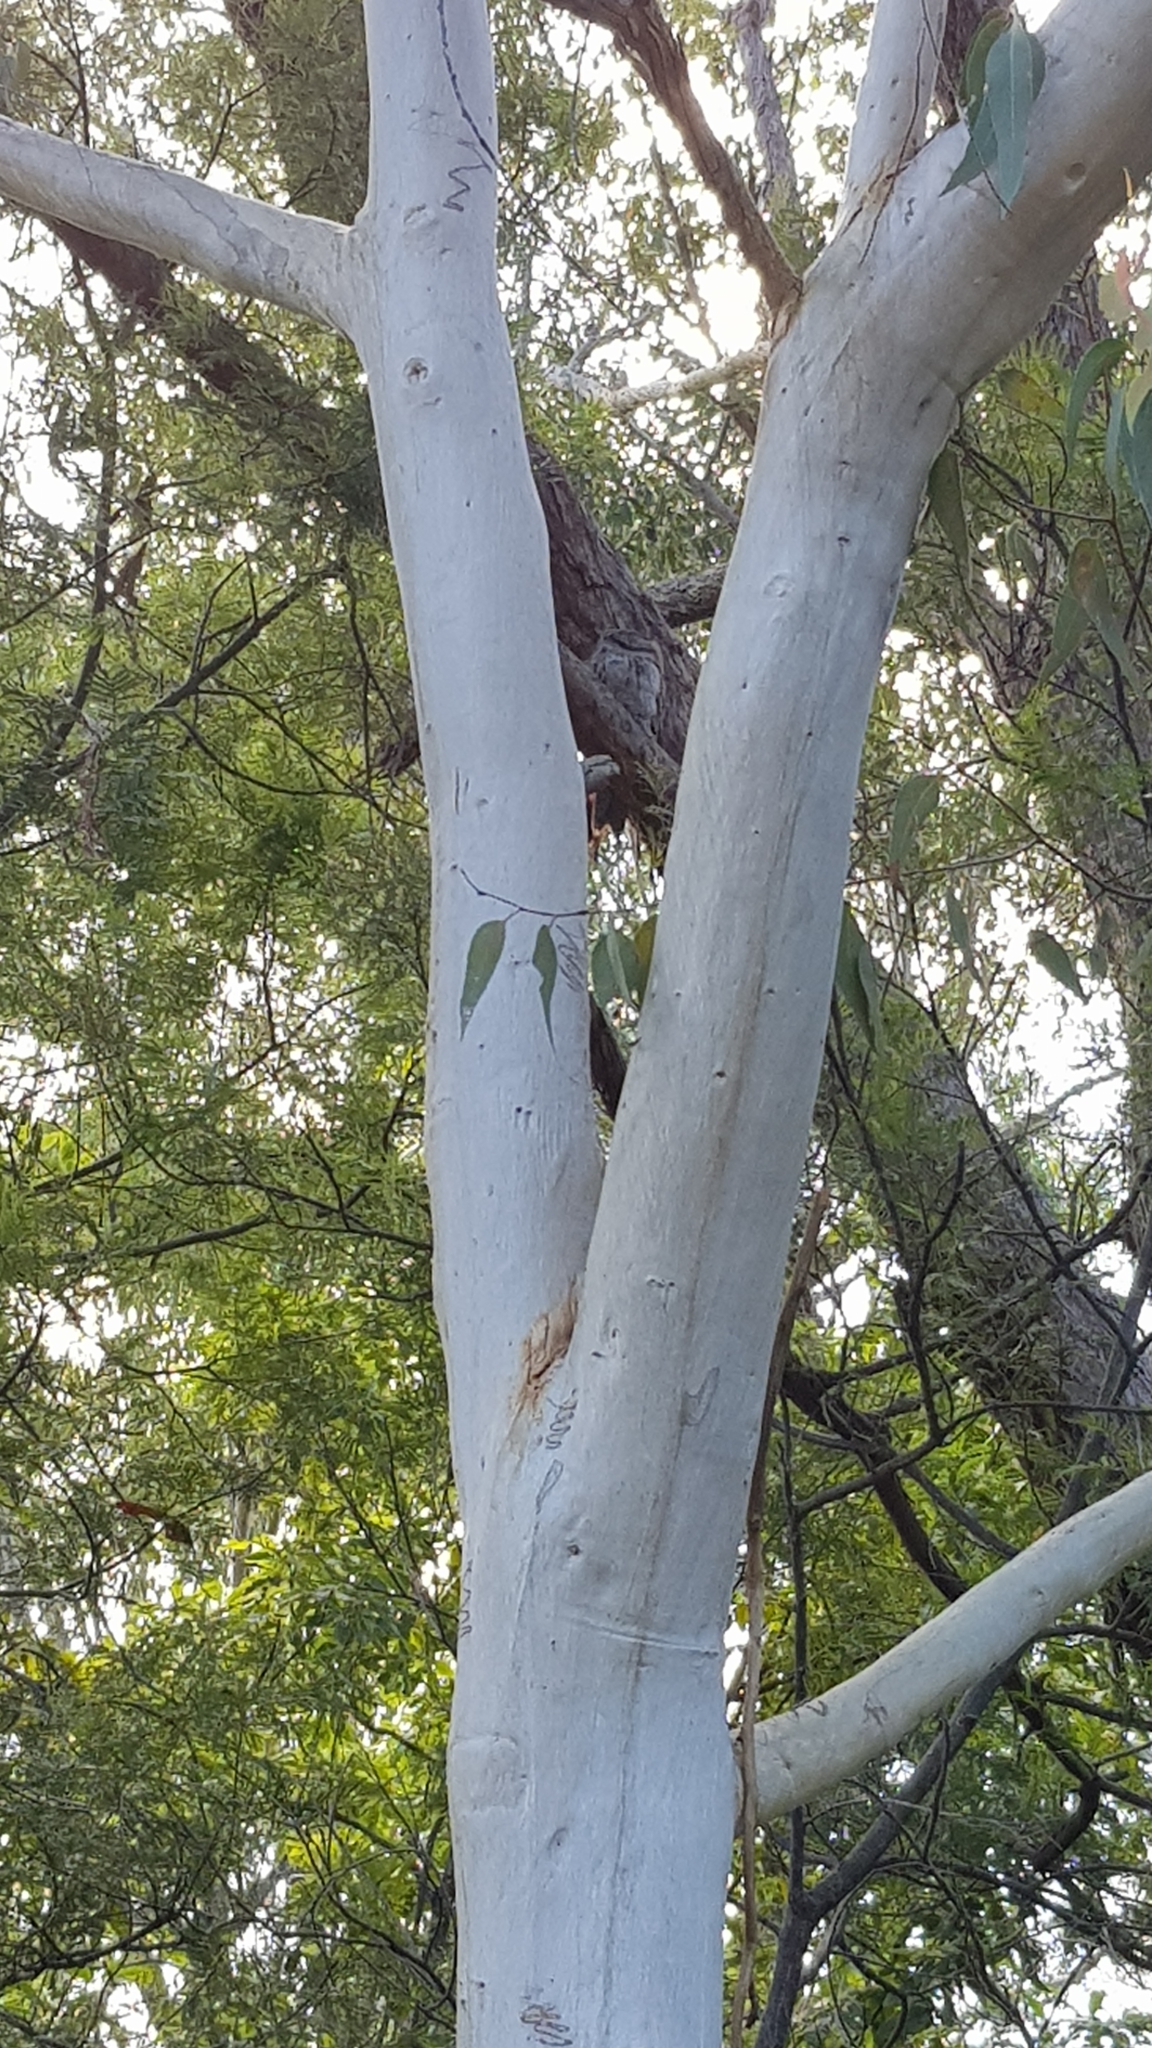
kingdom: Animalia
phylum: Chordata
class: Aves
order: Caprimulgiformes
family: Podargidae
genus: Podargus
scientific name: Podargus strigoides
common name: Tawny frogmouth
